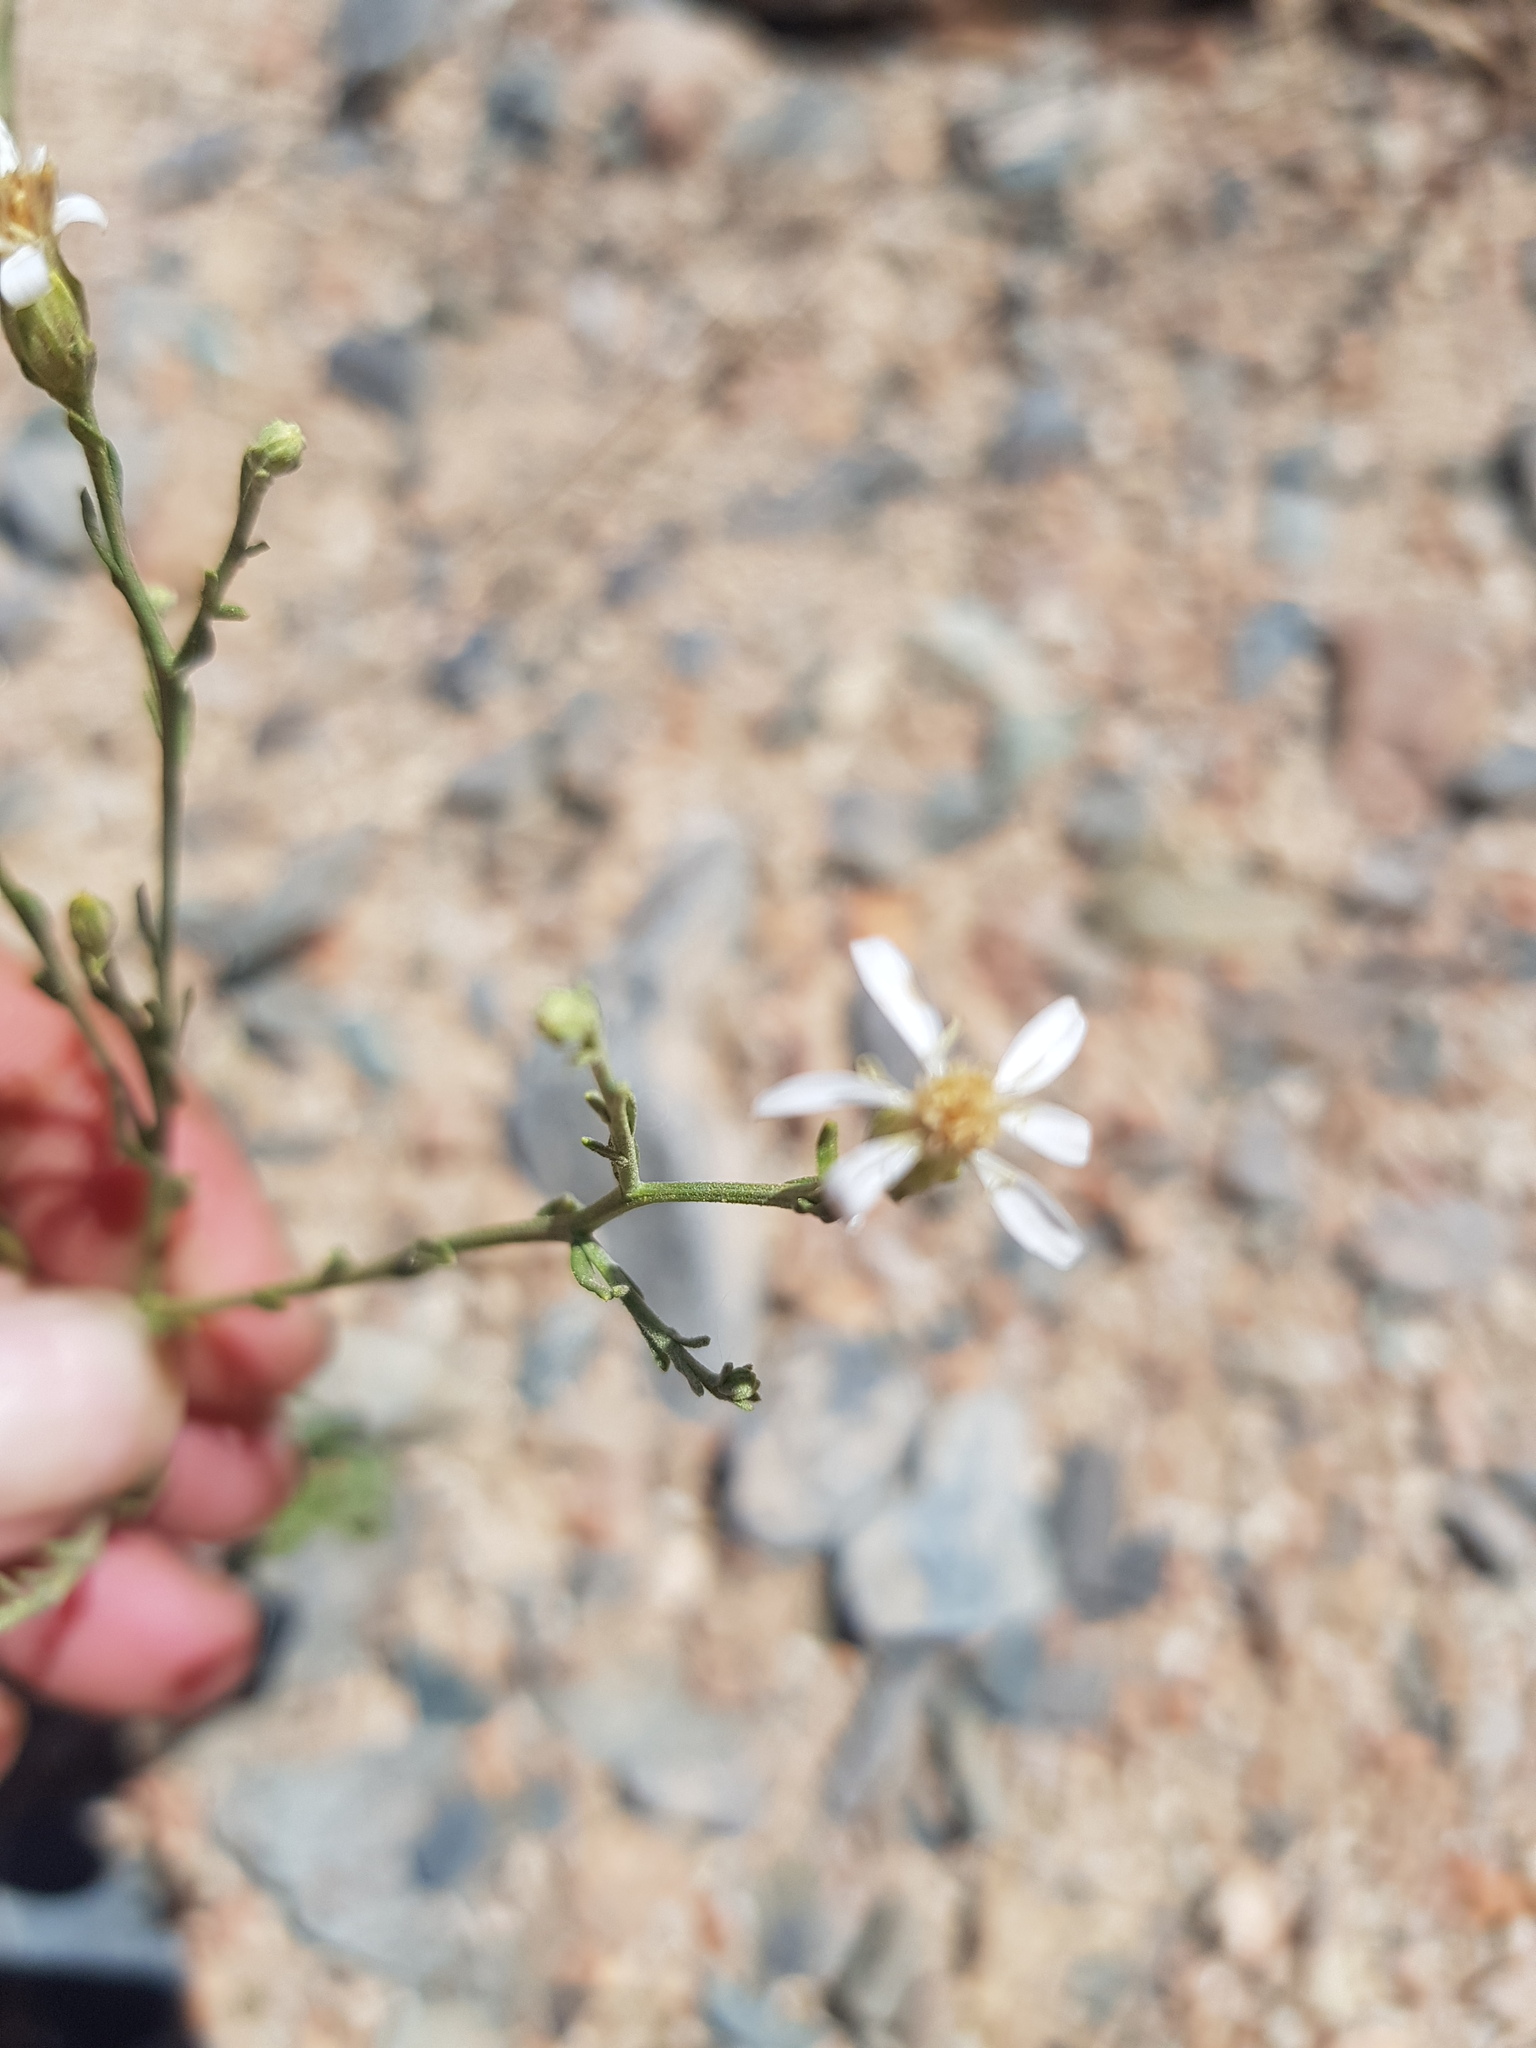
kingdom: Plantae
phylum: Tracheophyta
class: Magnoliopsida
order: Asterales
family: Asteraceae
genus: Asterothamnus
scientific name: Asterothamnus molliusculus
